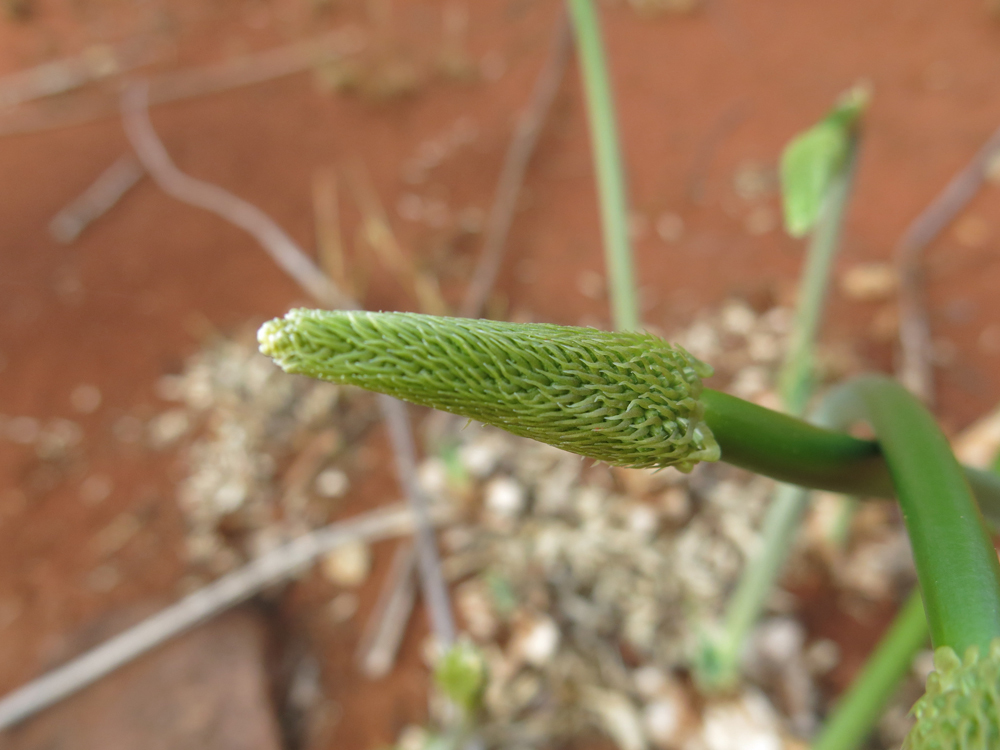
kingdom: Plantae
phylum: Tracheophyta
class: Liliopsida
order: Asparagales
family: Asparagaceae
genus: Drimia
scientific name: Drimia altissima
